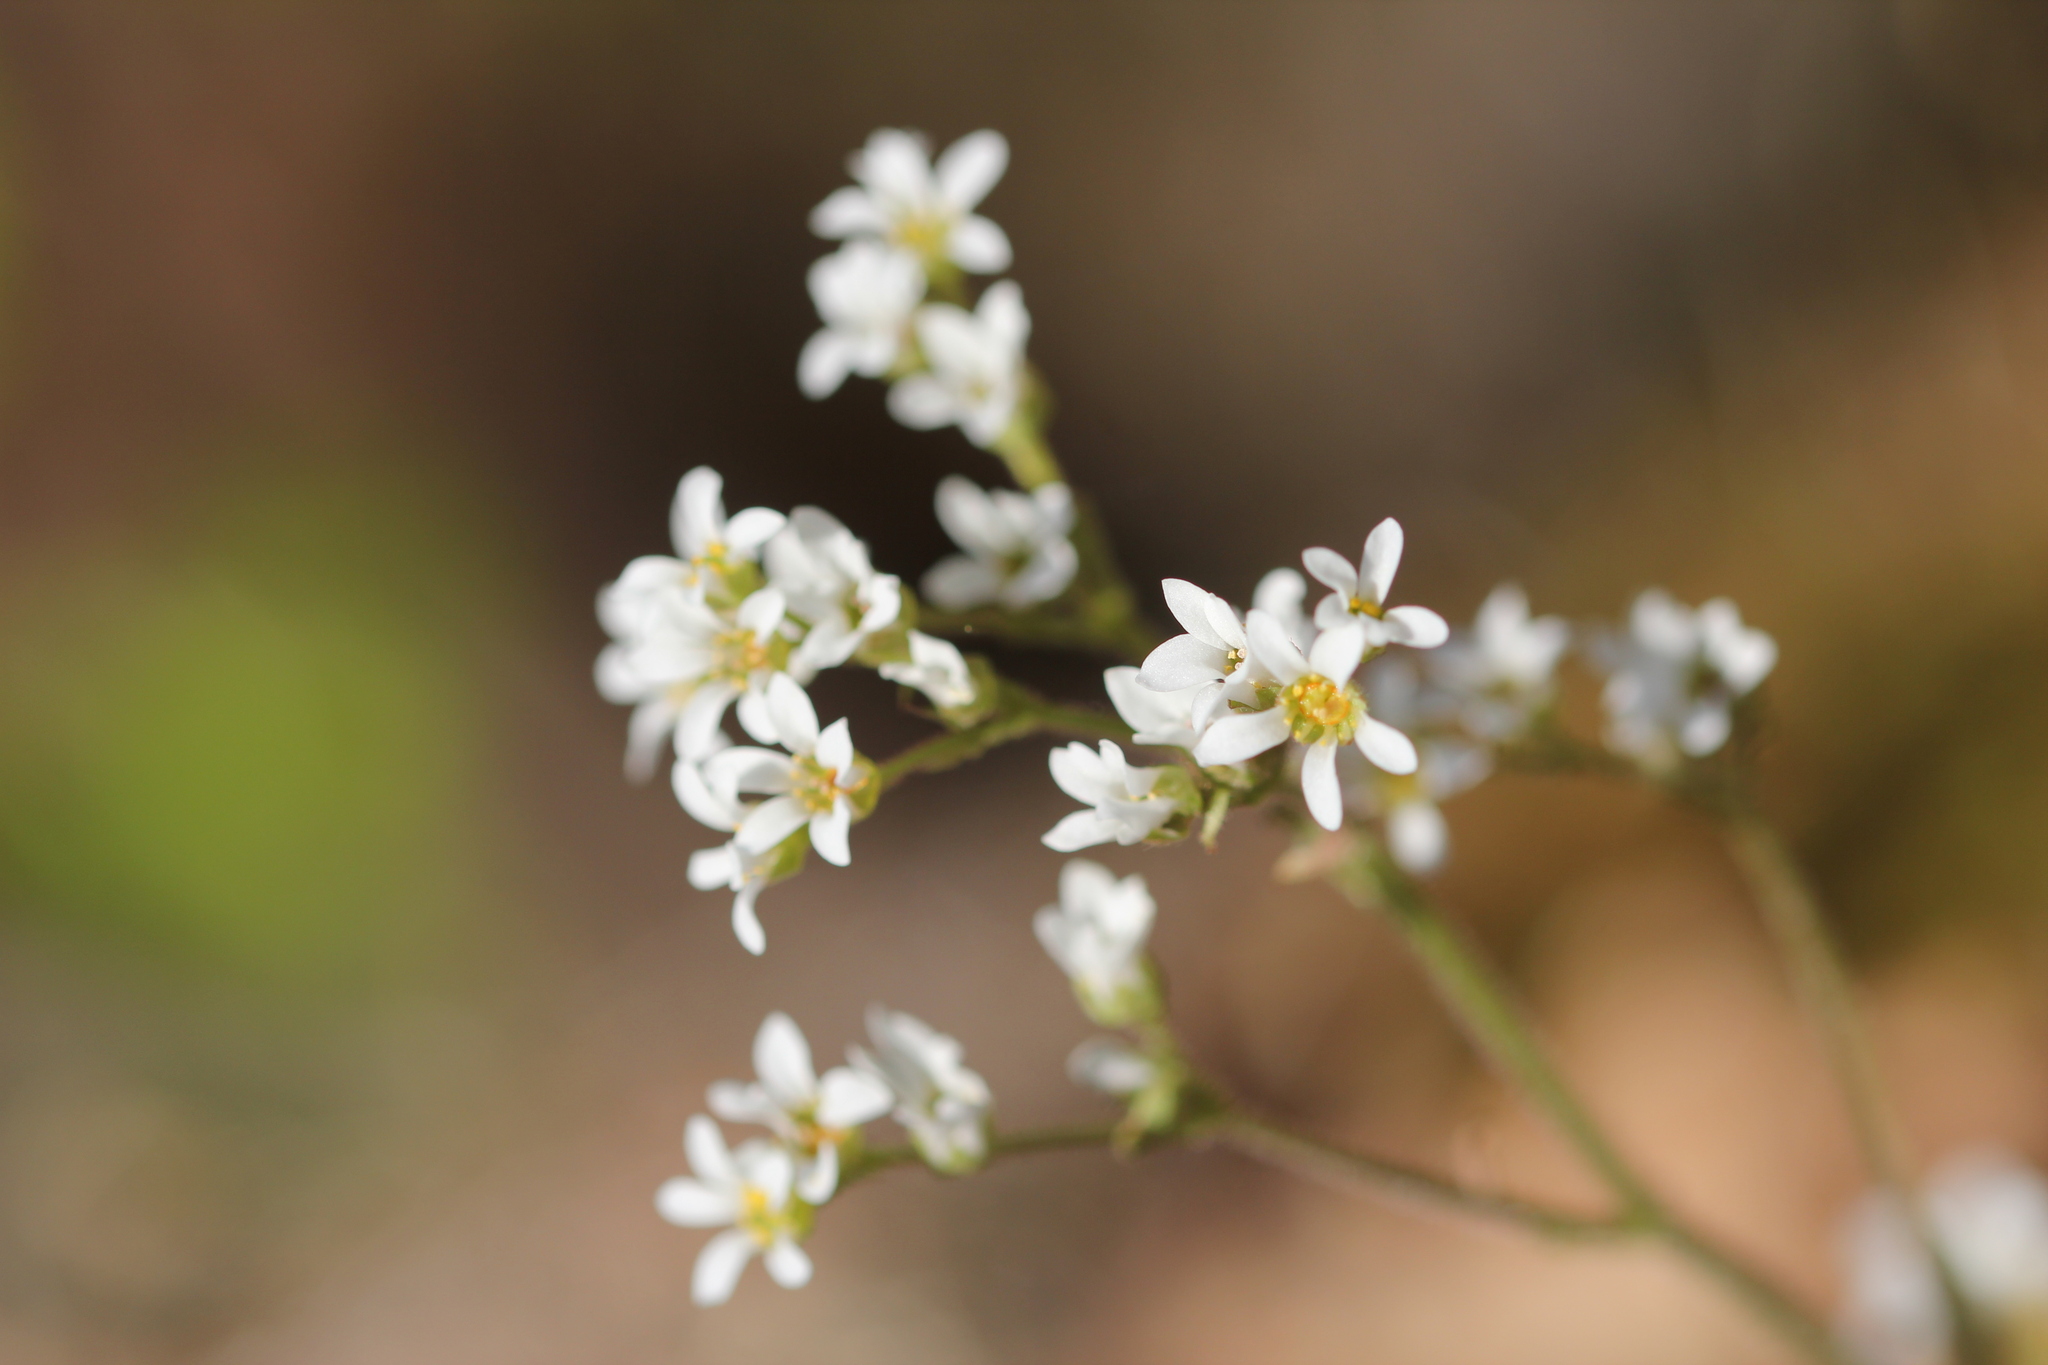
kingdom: Plantae
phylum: Tracheophyta
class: Magnoliopsida
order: Saxifragales
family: Saxifragaceae
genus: Micranthes
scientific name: Micranthes virginiensis
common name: Early saxifrage
